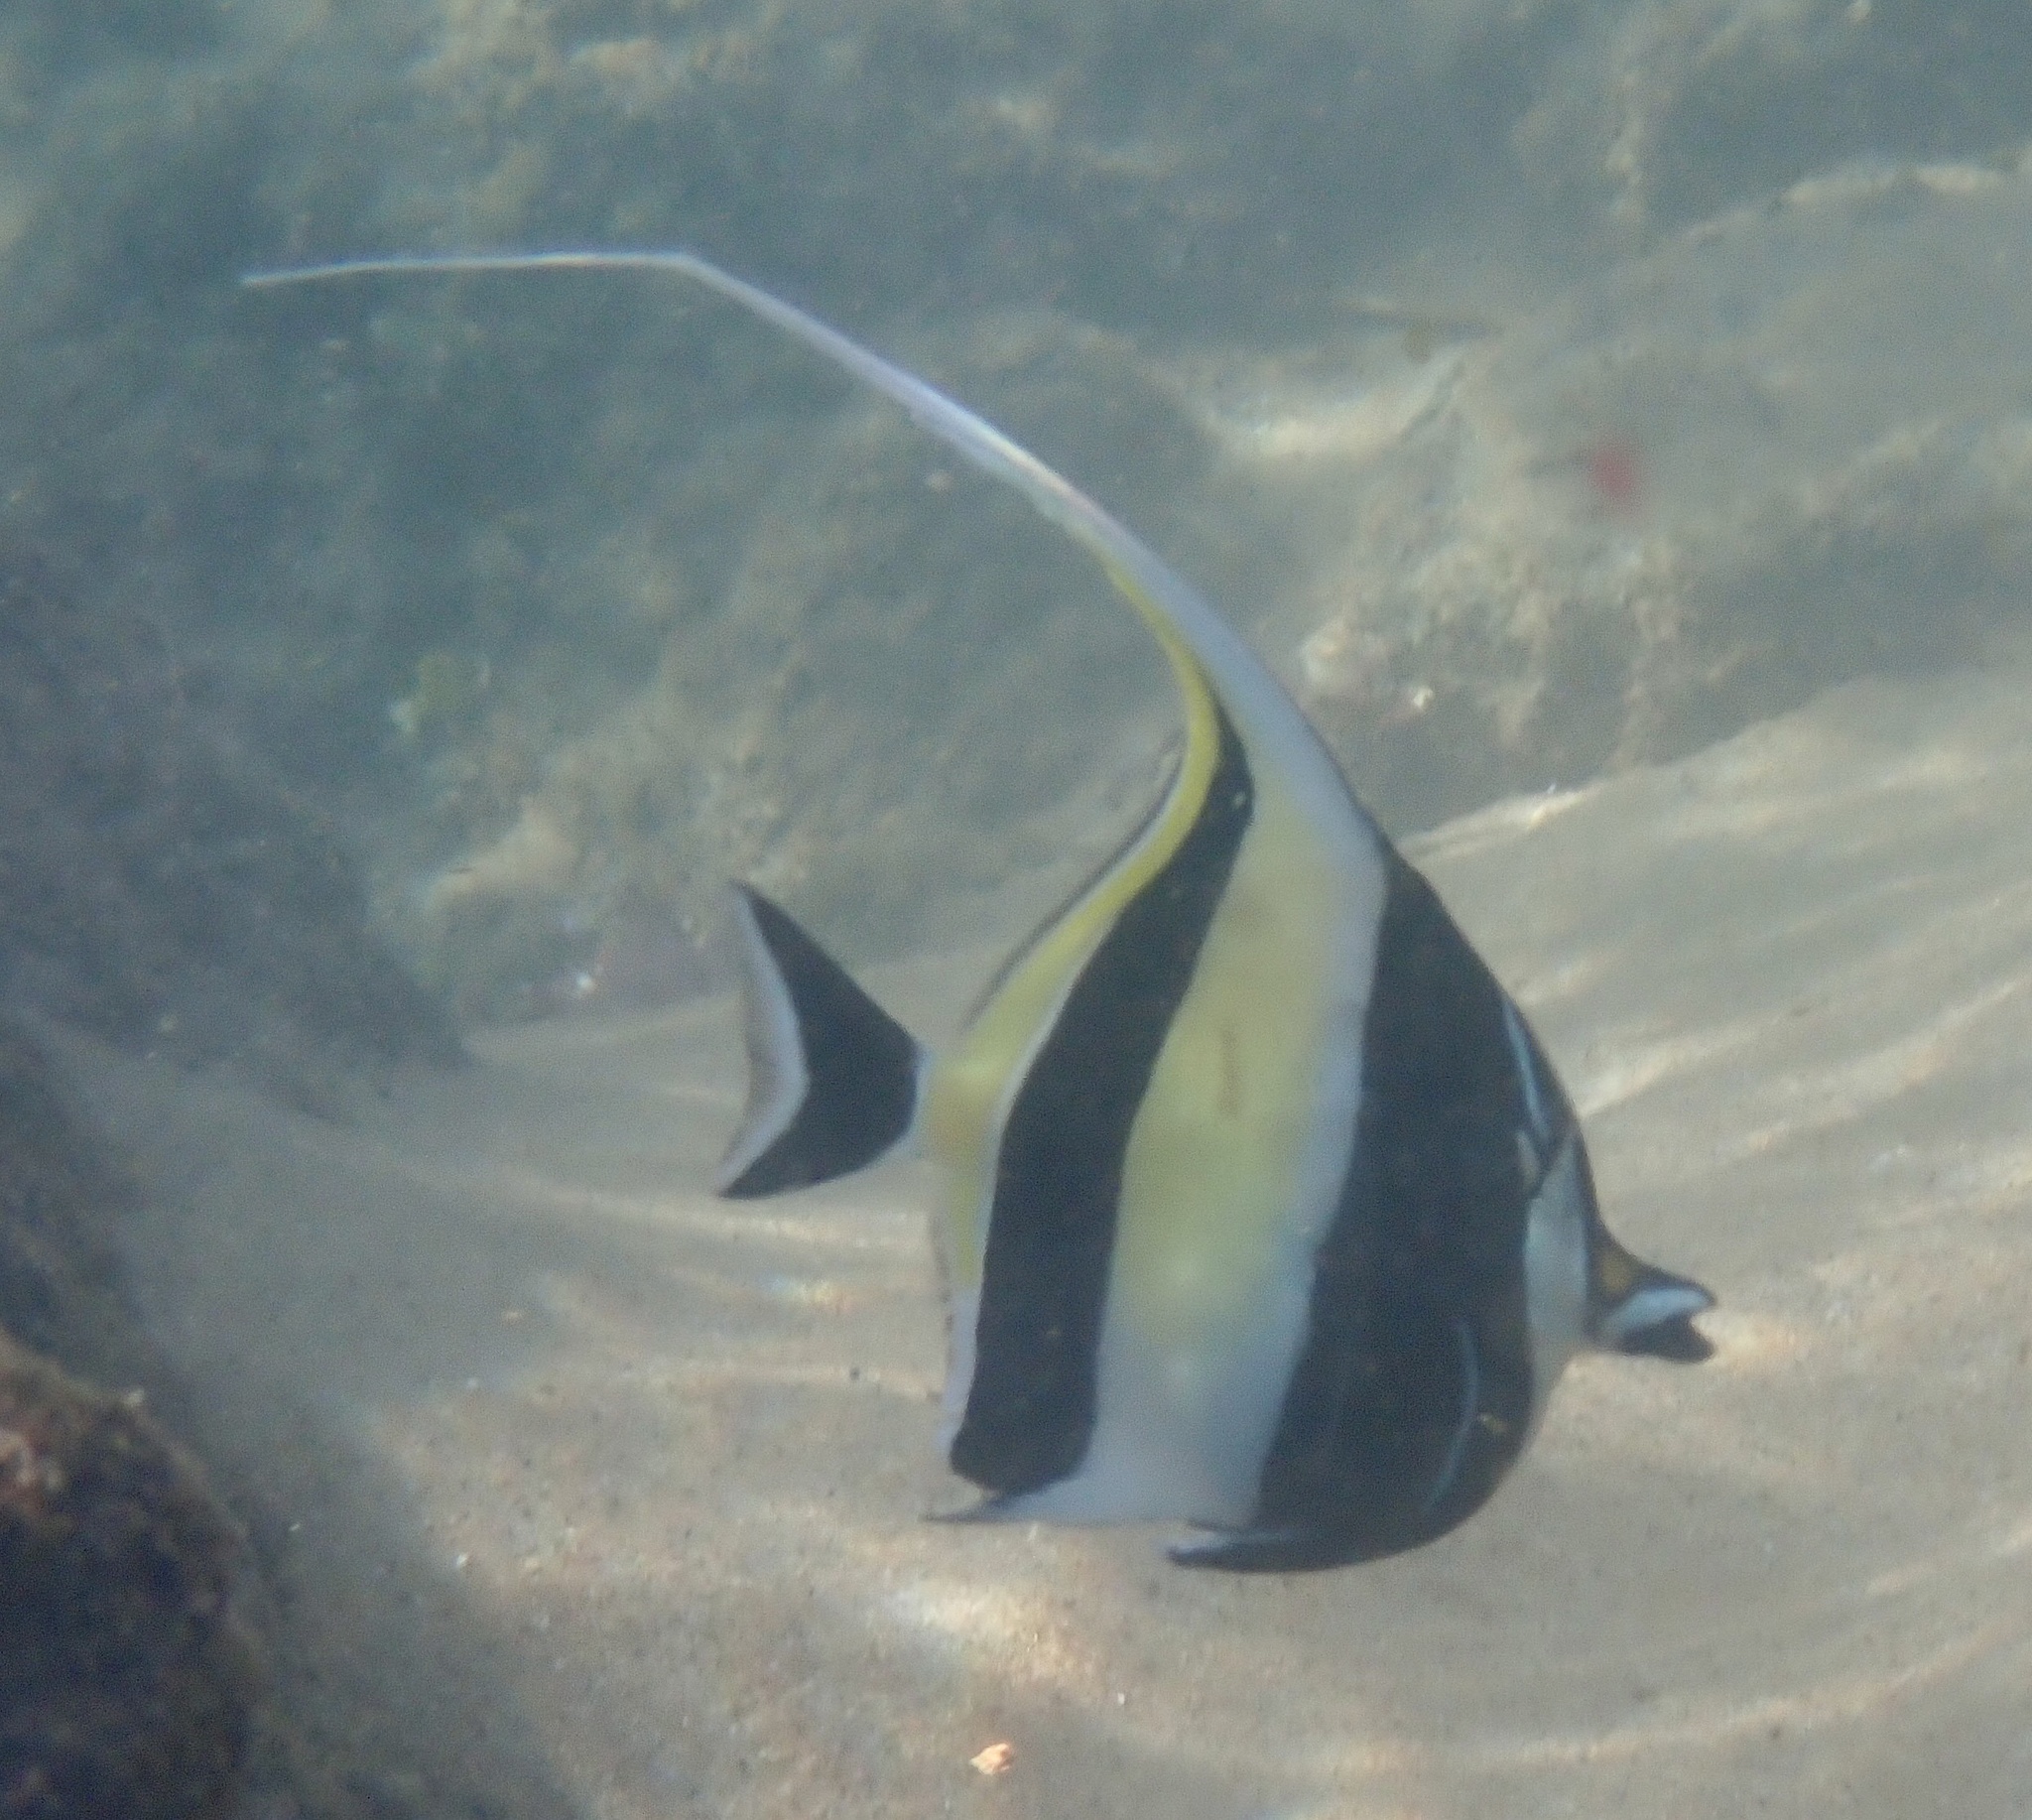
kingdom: Animalia
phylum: Chordata
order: Perciformes
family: Zanclidae
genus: Zanclus
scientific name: Zanclus cornutus
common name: Moorish idol
